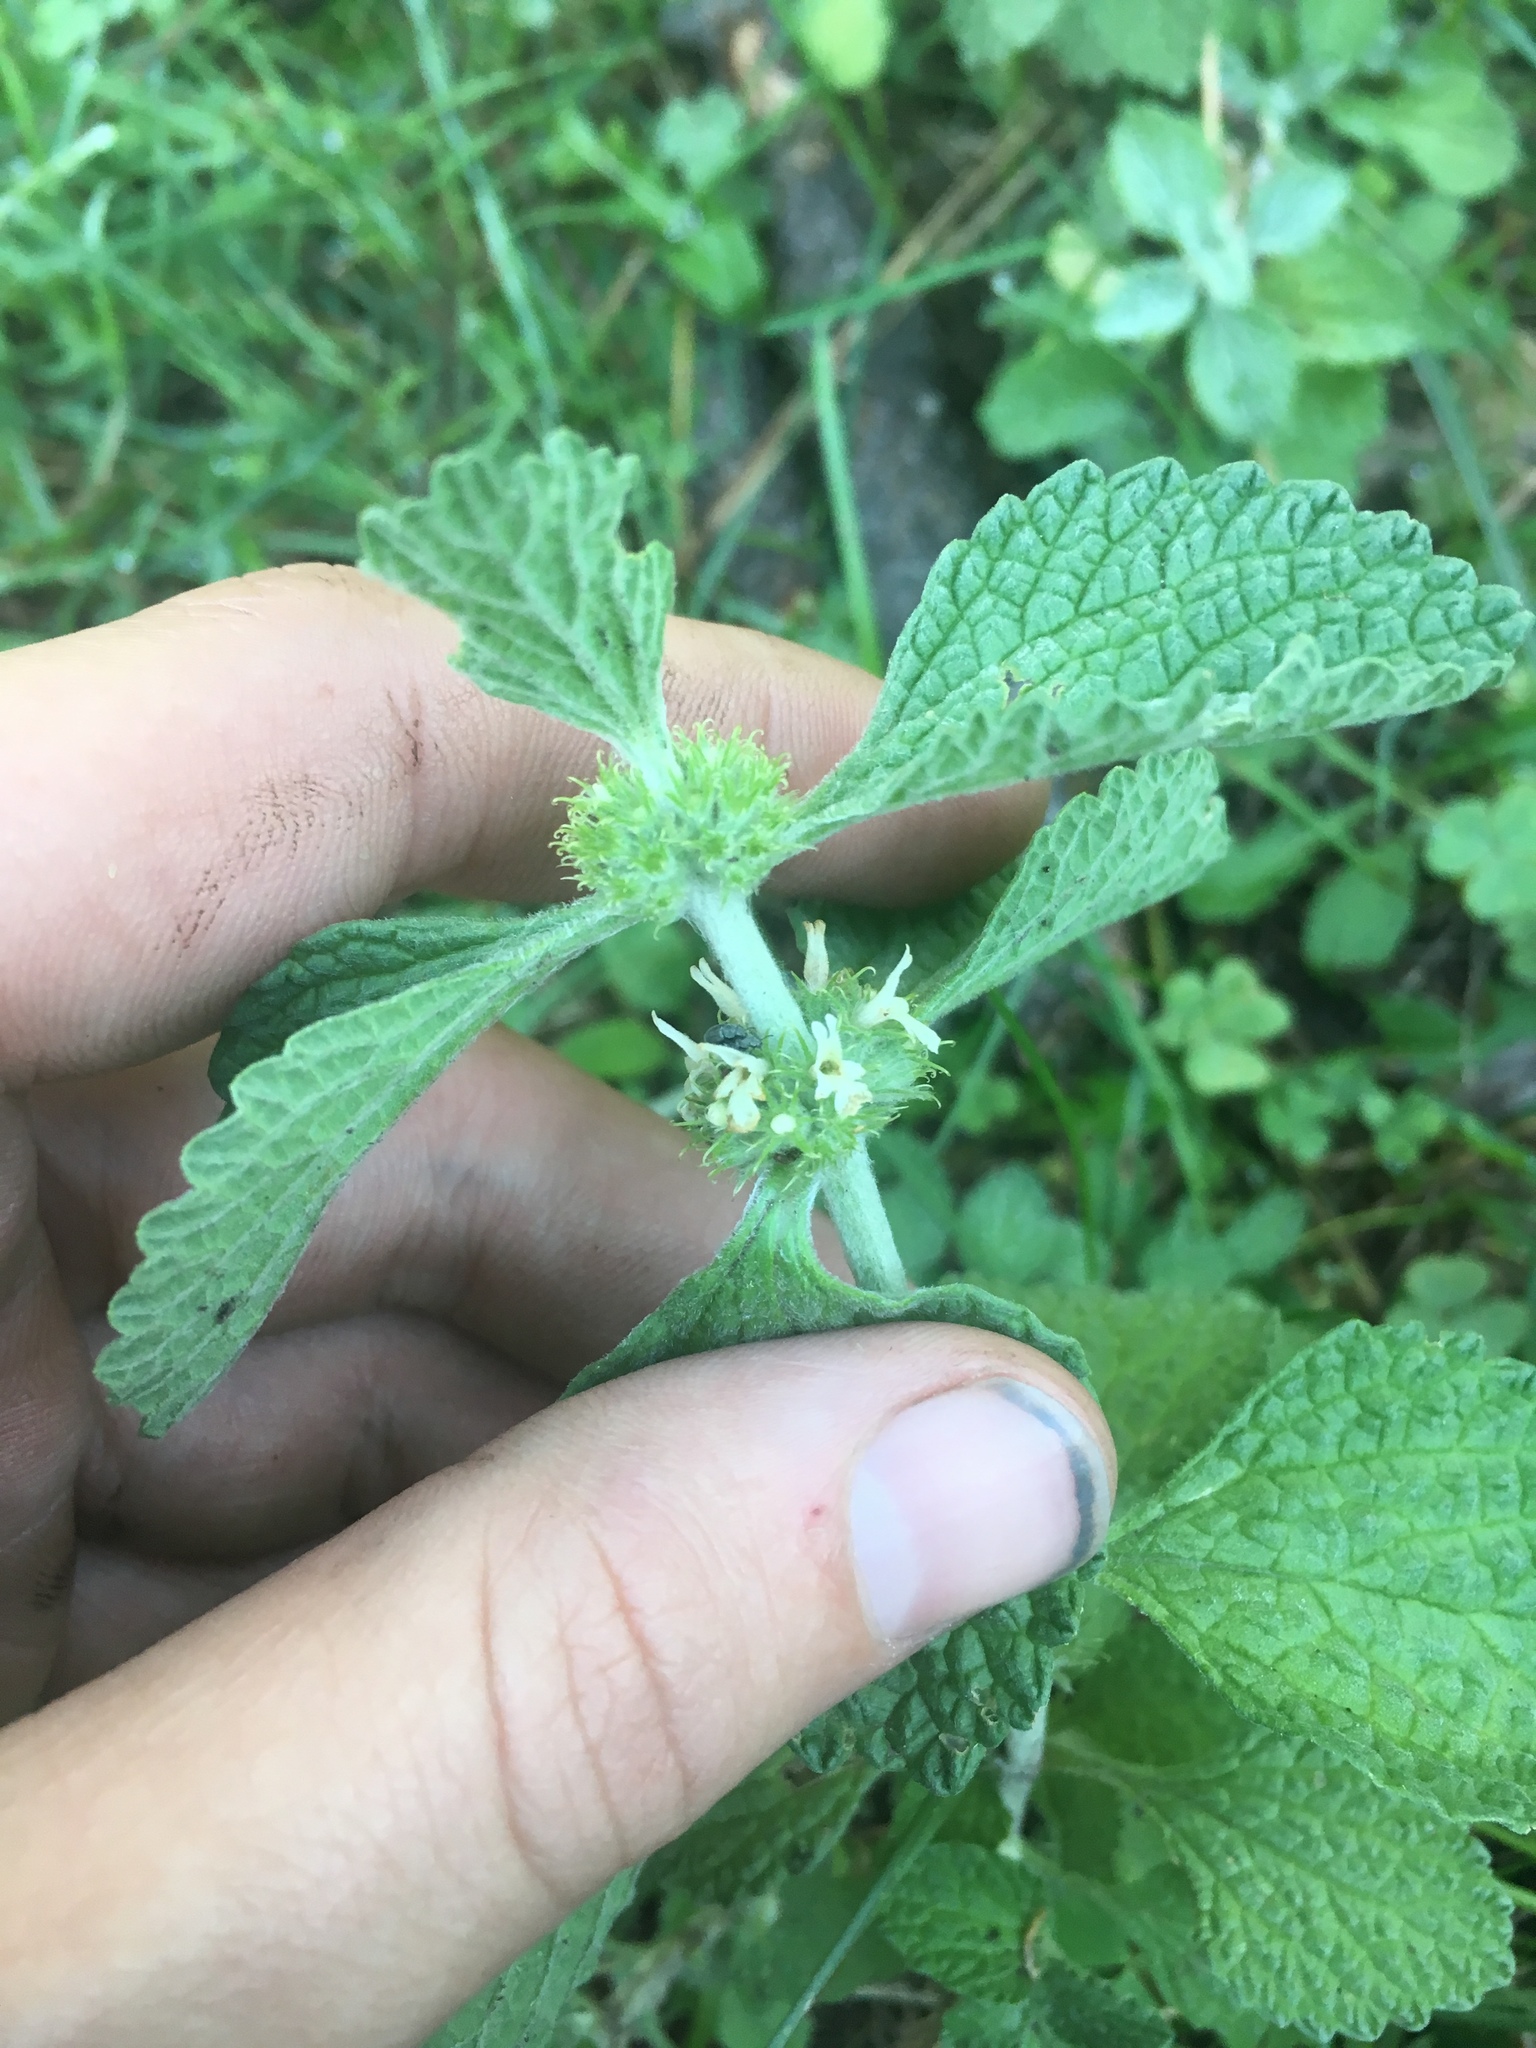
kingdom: Plantae
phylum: Tracheophyta
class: Magnoliopsida
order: Lamiales
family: Lamiaceae
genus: Marrubium
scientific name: Marrubium vulgare
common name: Horehound
